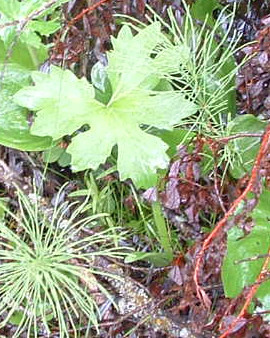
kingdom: Plantae
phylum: Tracheophyta
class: Magnoliopsida
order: Asterales
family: Asteraceae
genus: Petasites
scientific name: Petasites frigidus
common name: Arctic butterbur
